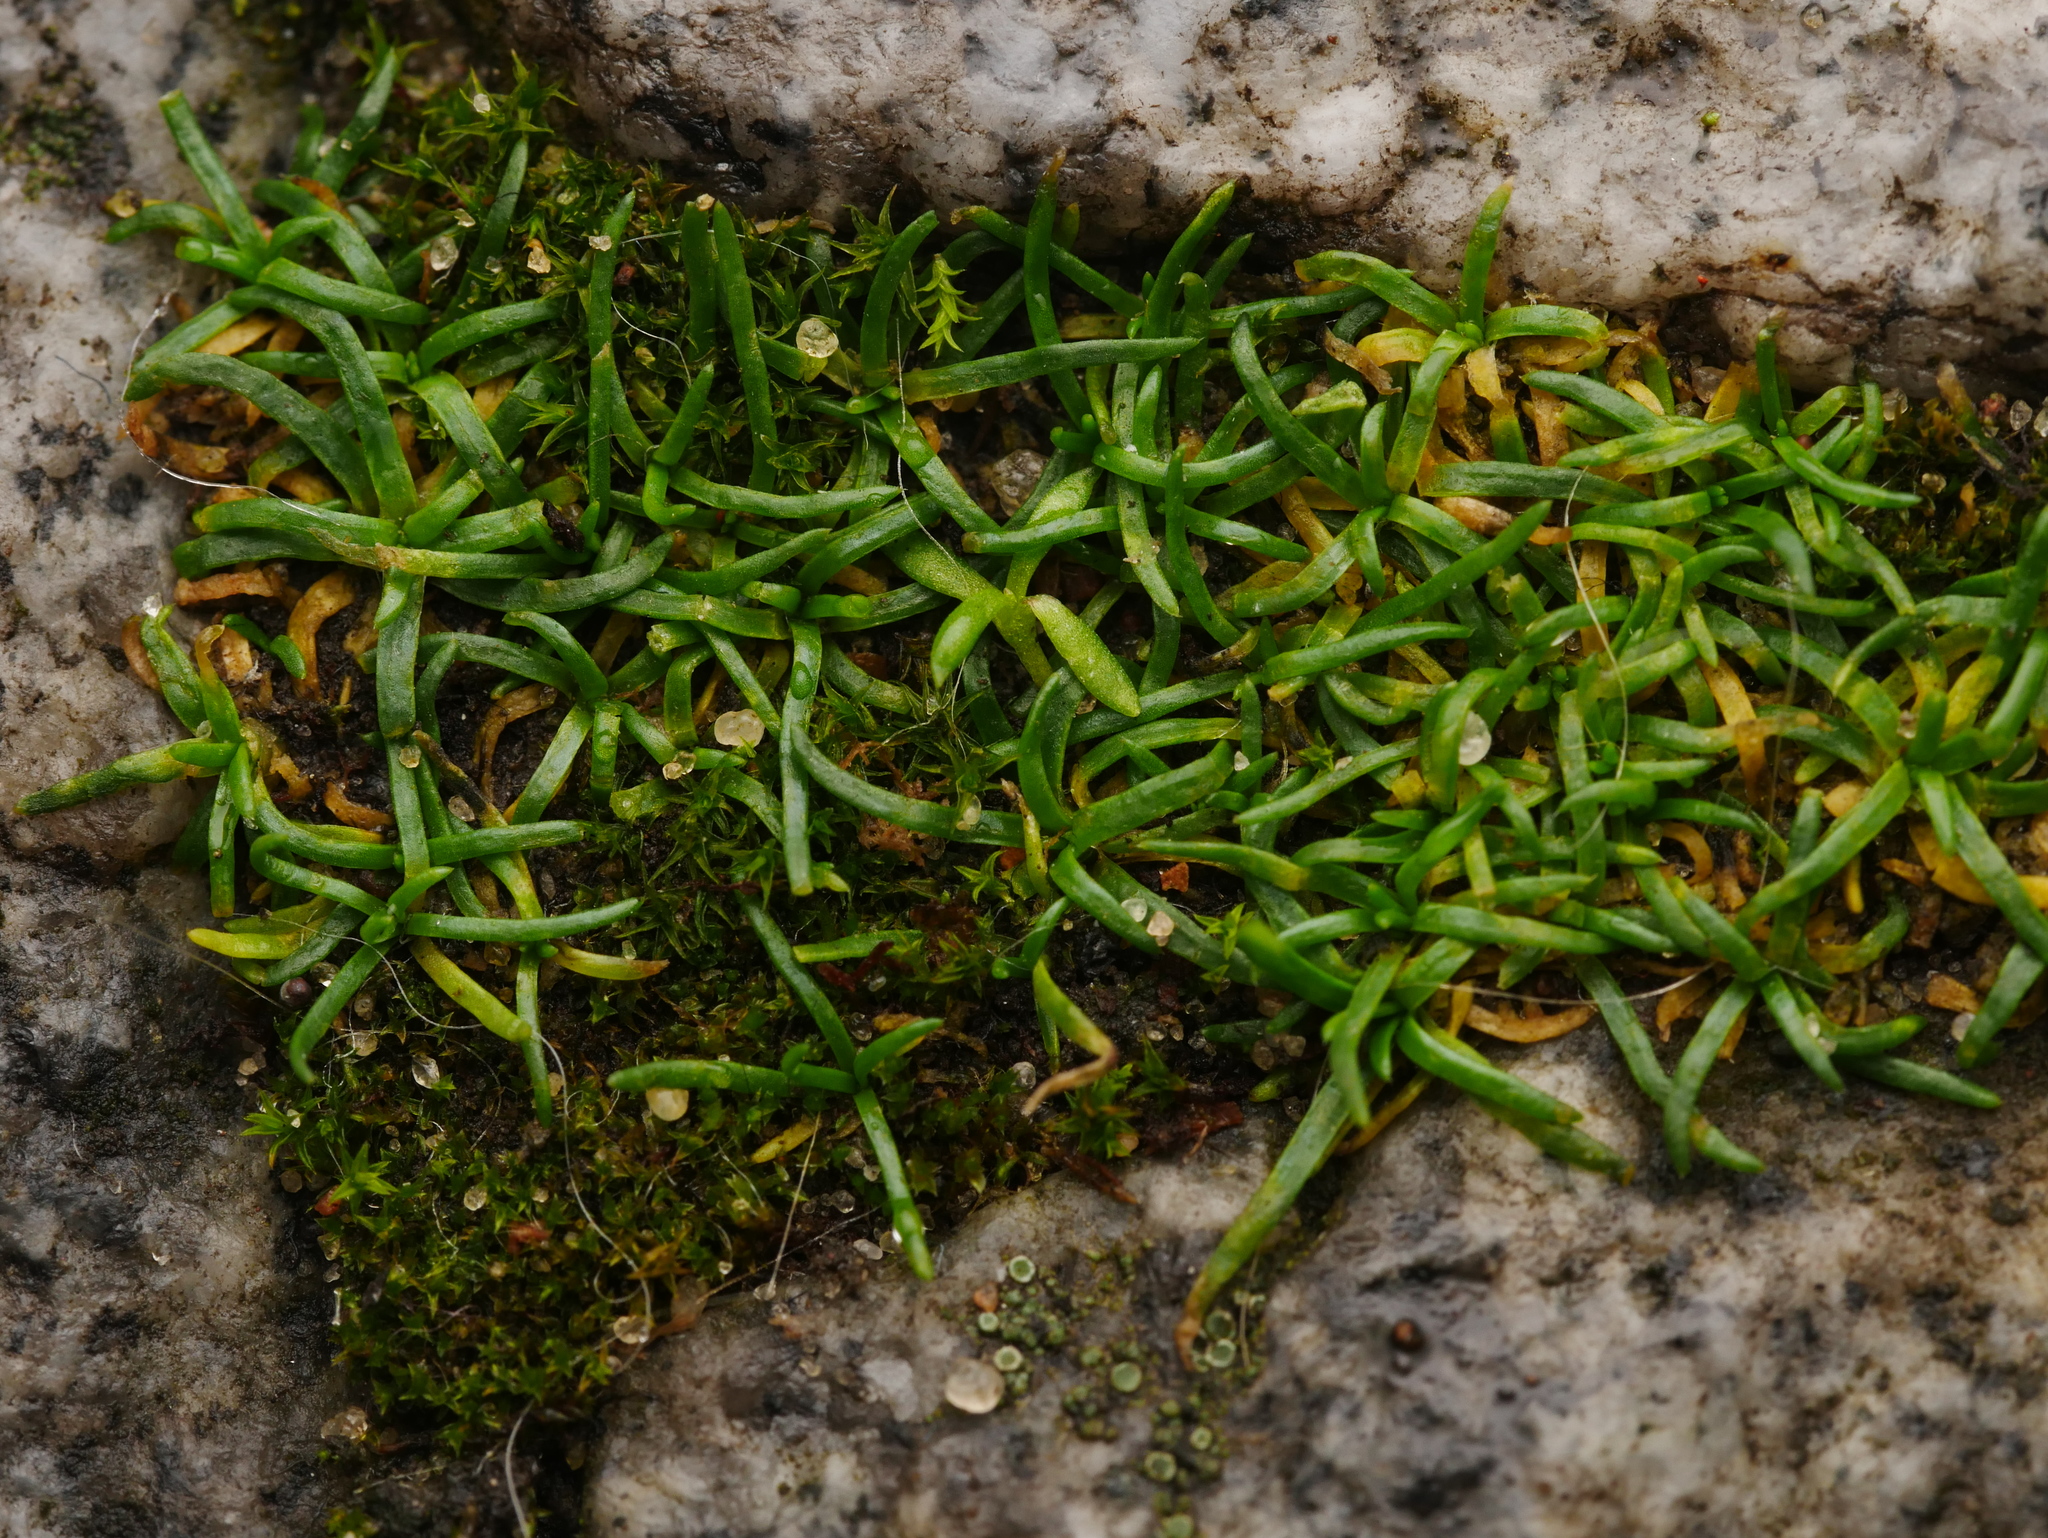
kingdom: Plantae
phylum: Tracheophyta
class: Magnoliopsida
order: Caryophyllales
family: Caryophyllaceae
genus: Sagina
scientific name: Sagina procumbens
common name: Procumbent pearlwort
